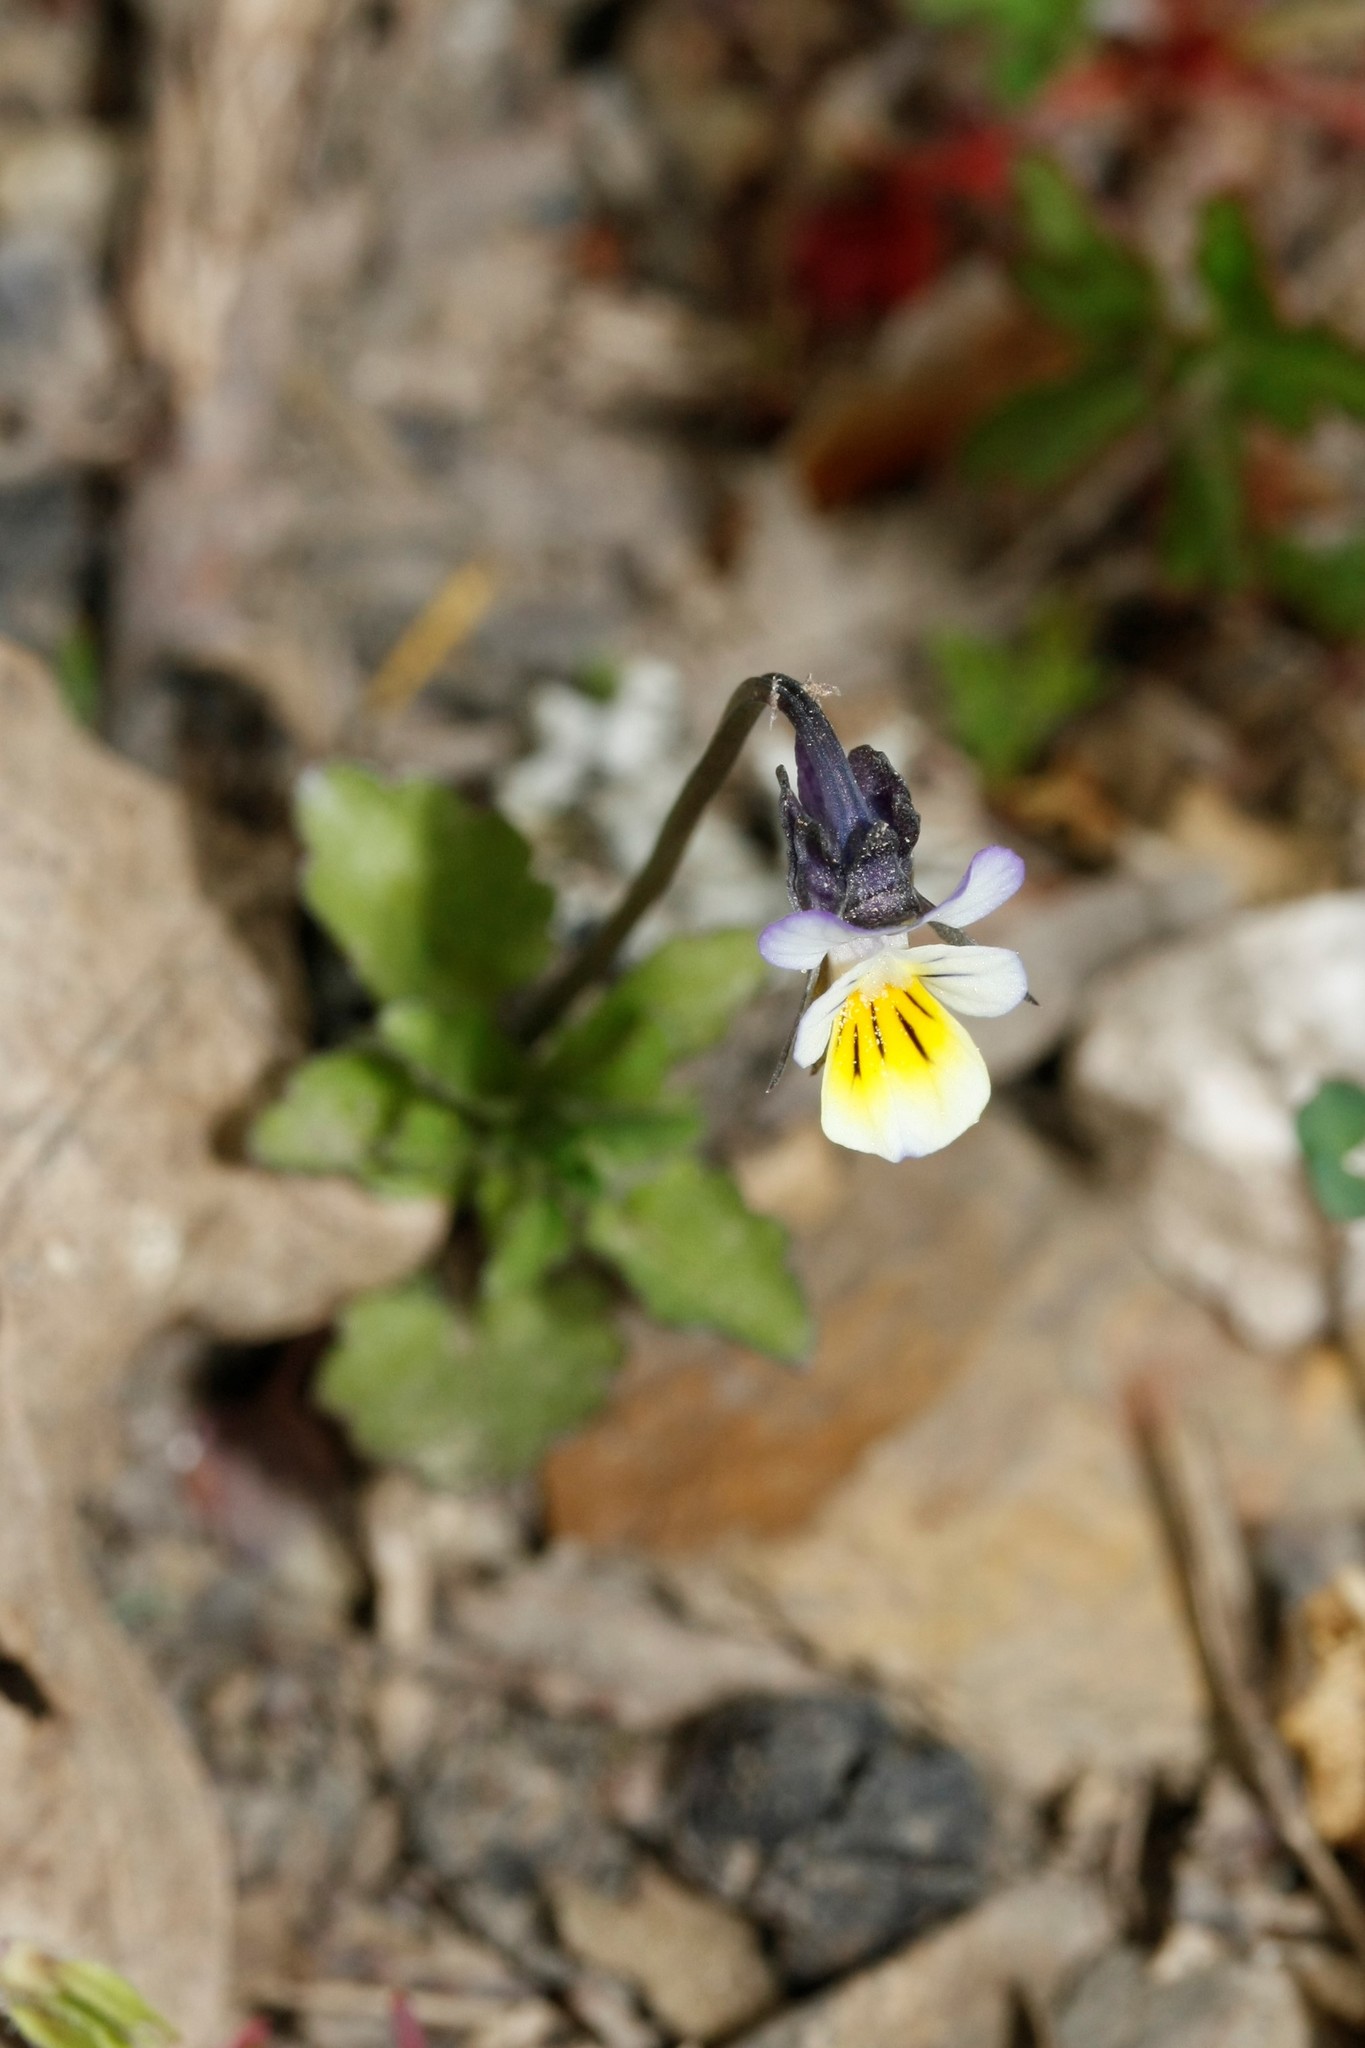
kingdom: Plantae
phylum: Tracheophyta
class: Magnoliopsida
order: Malpighiales
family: Violaceae
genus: Viola
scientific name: Viola arvensis
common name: Field pansy
